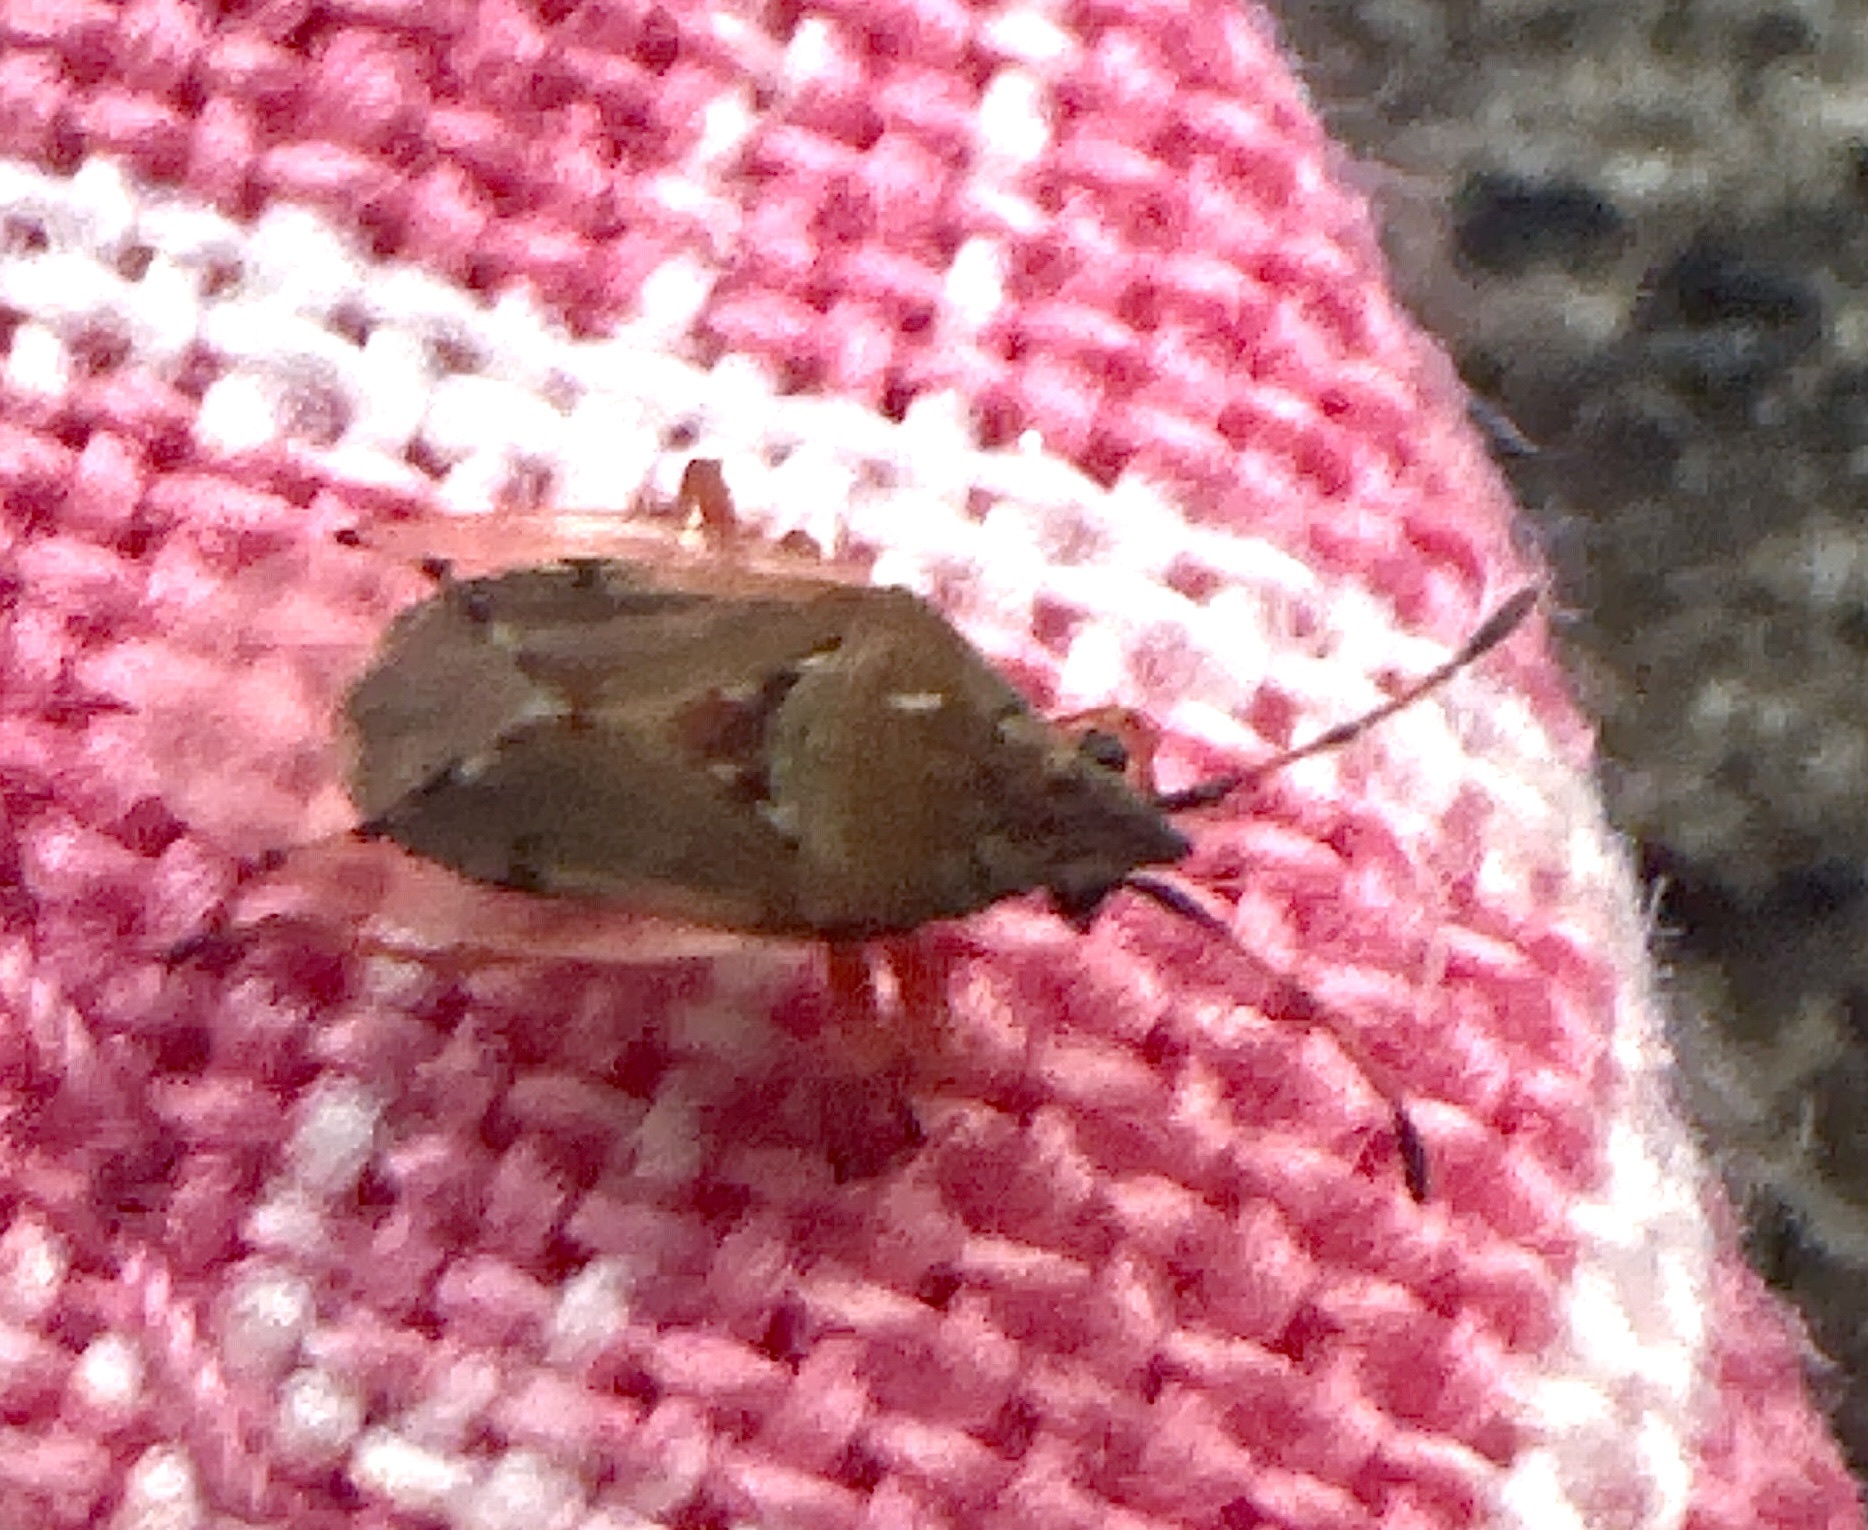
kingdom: Animalia
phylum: Arthropoda
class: Insecta
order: Hemiptera
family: Lygaeidae
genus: Kleidocerys
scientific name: Kleidocerys resedae
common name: Birch catkin bug
